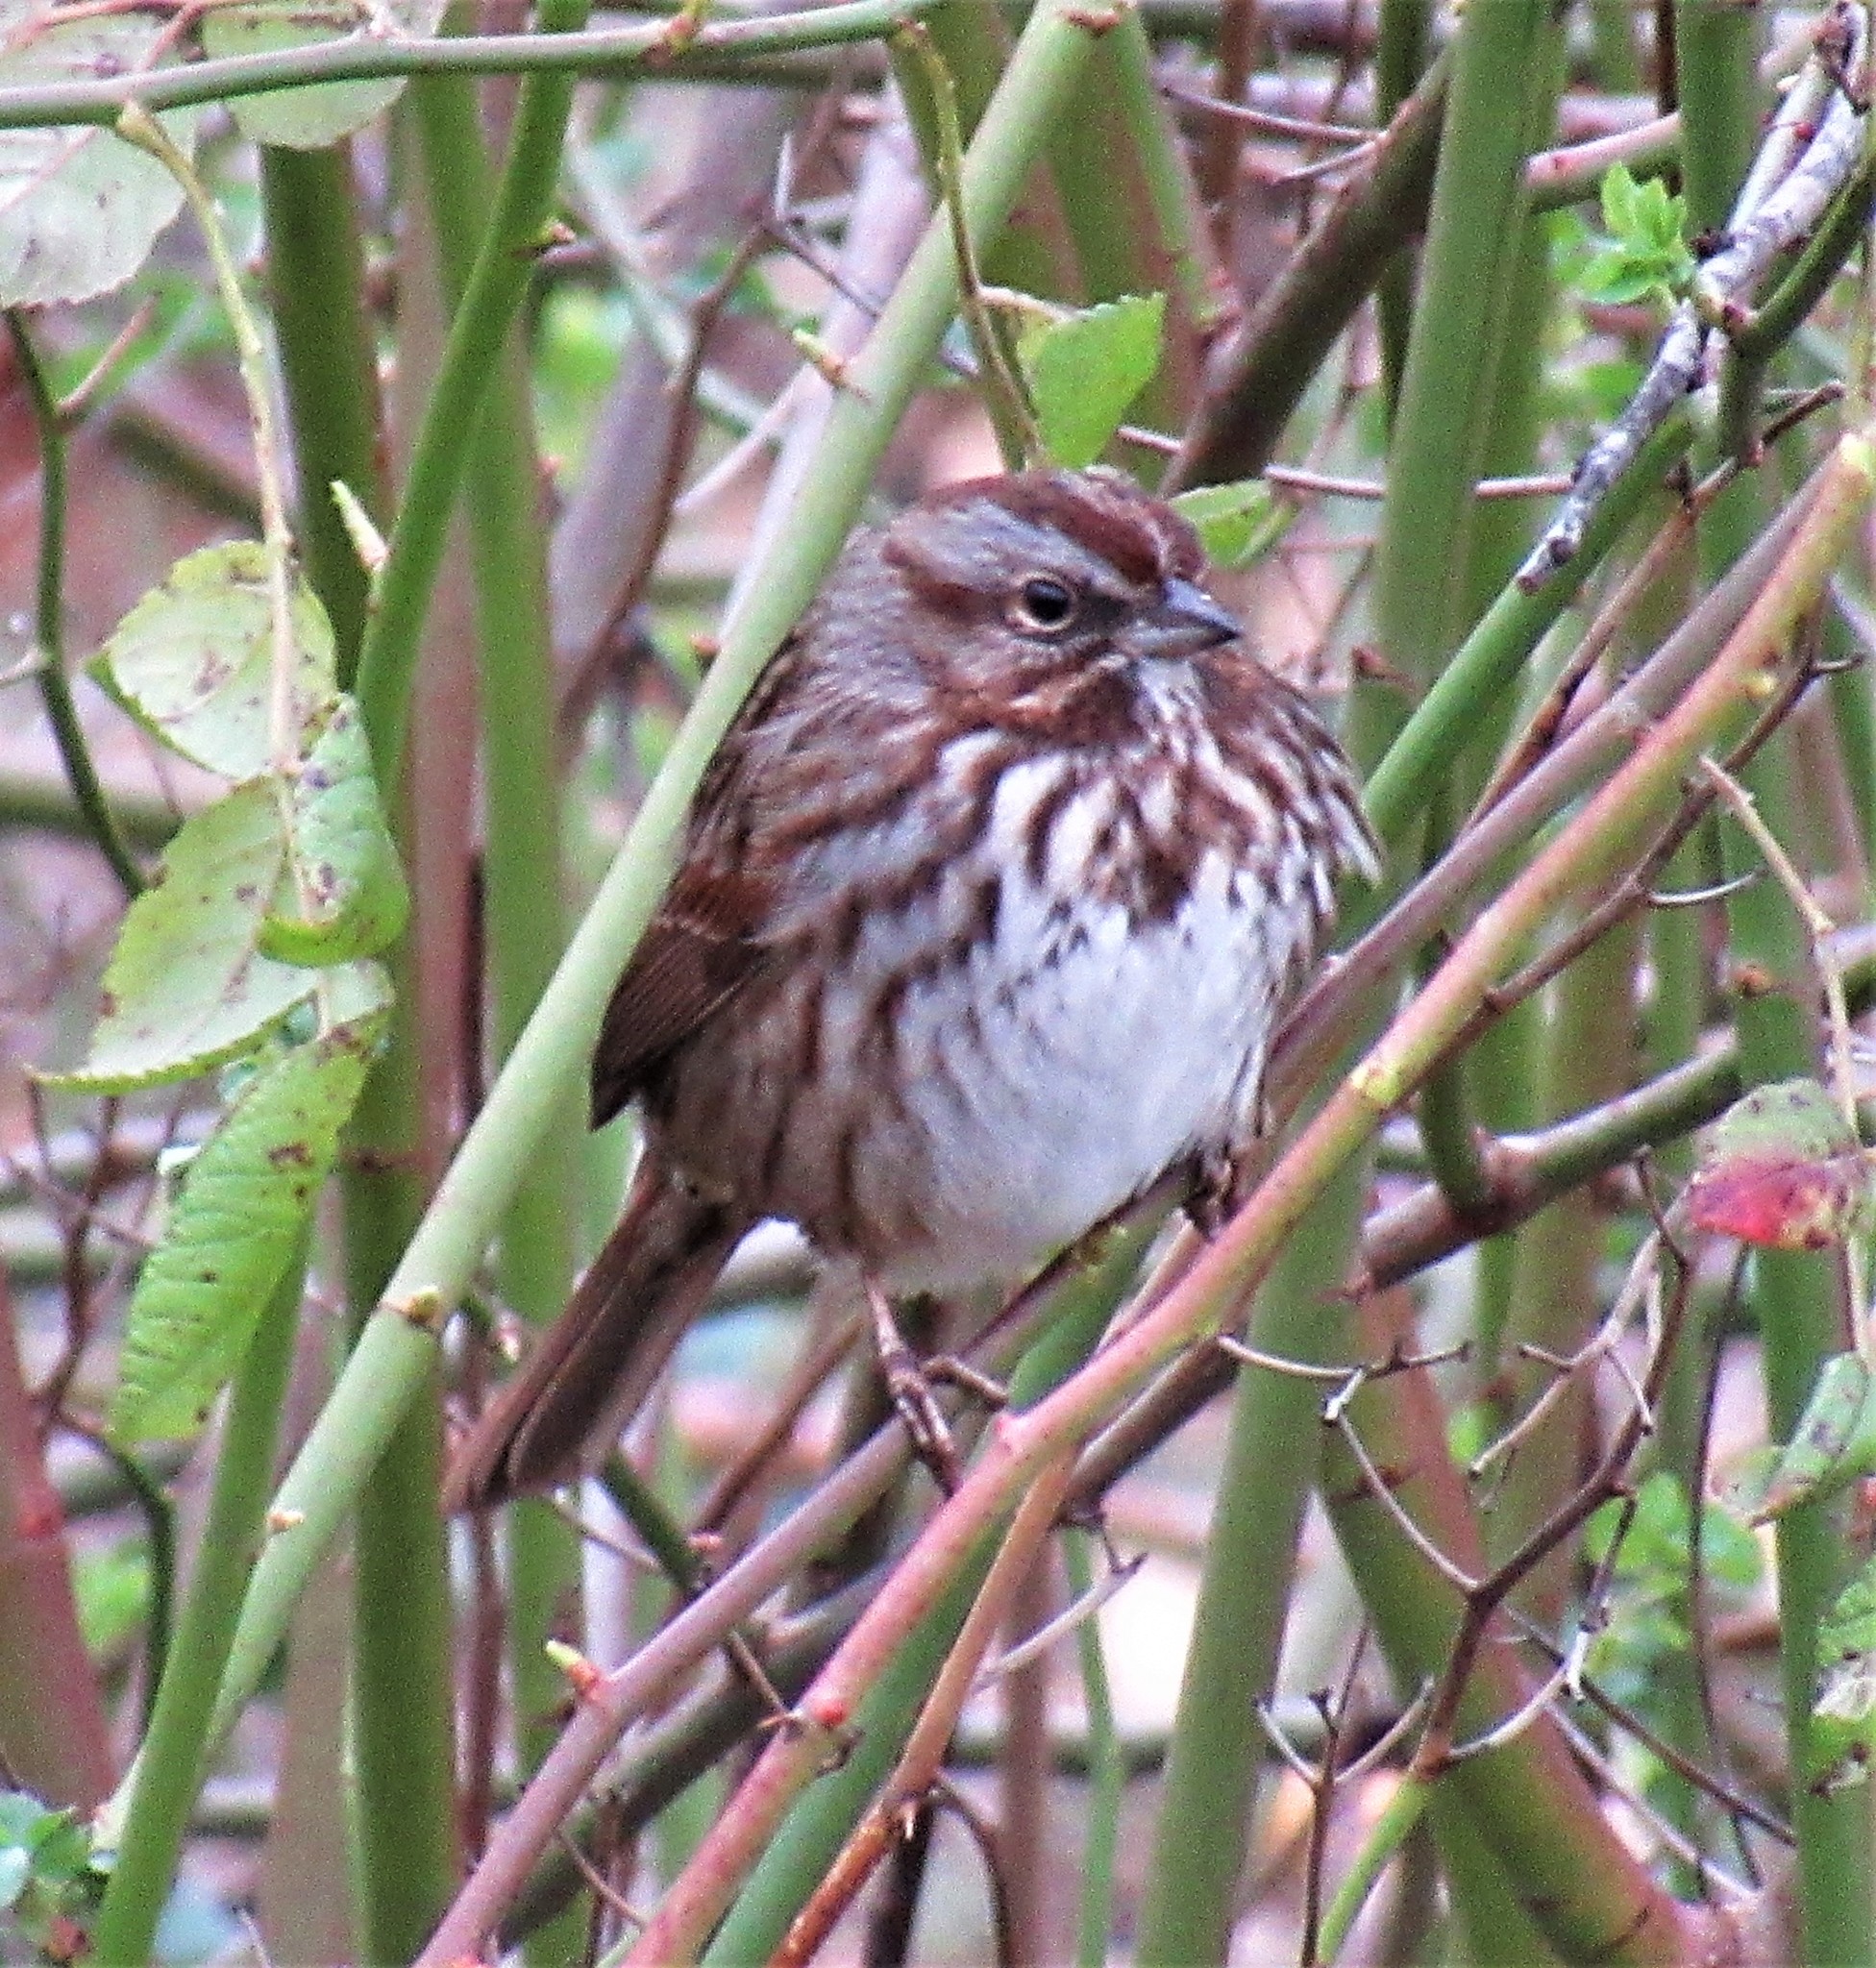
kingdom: Animalia
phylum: Chordata
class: Aves
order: Passeriformes
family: Passerellidae
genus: Melospiza
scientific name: Melospiza melodia
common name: Song sparrow
